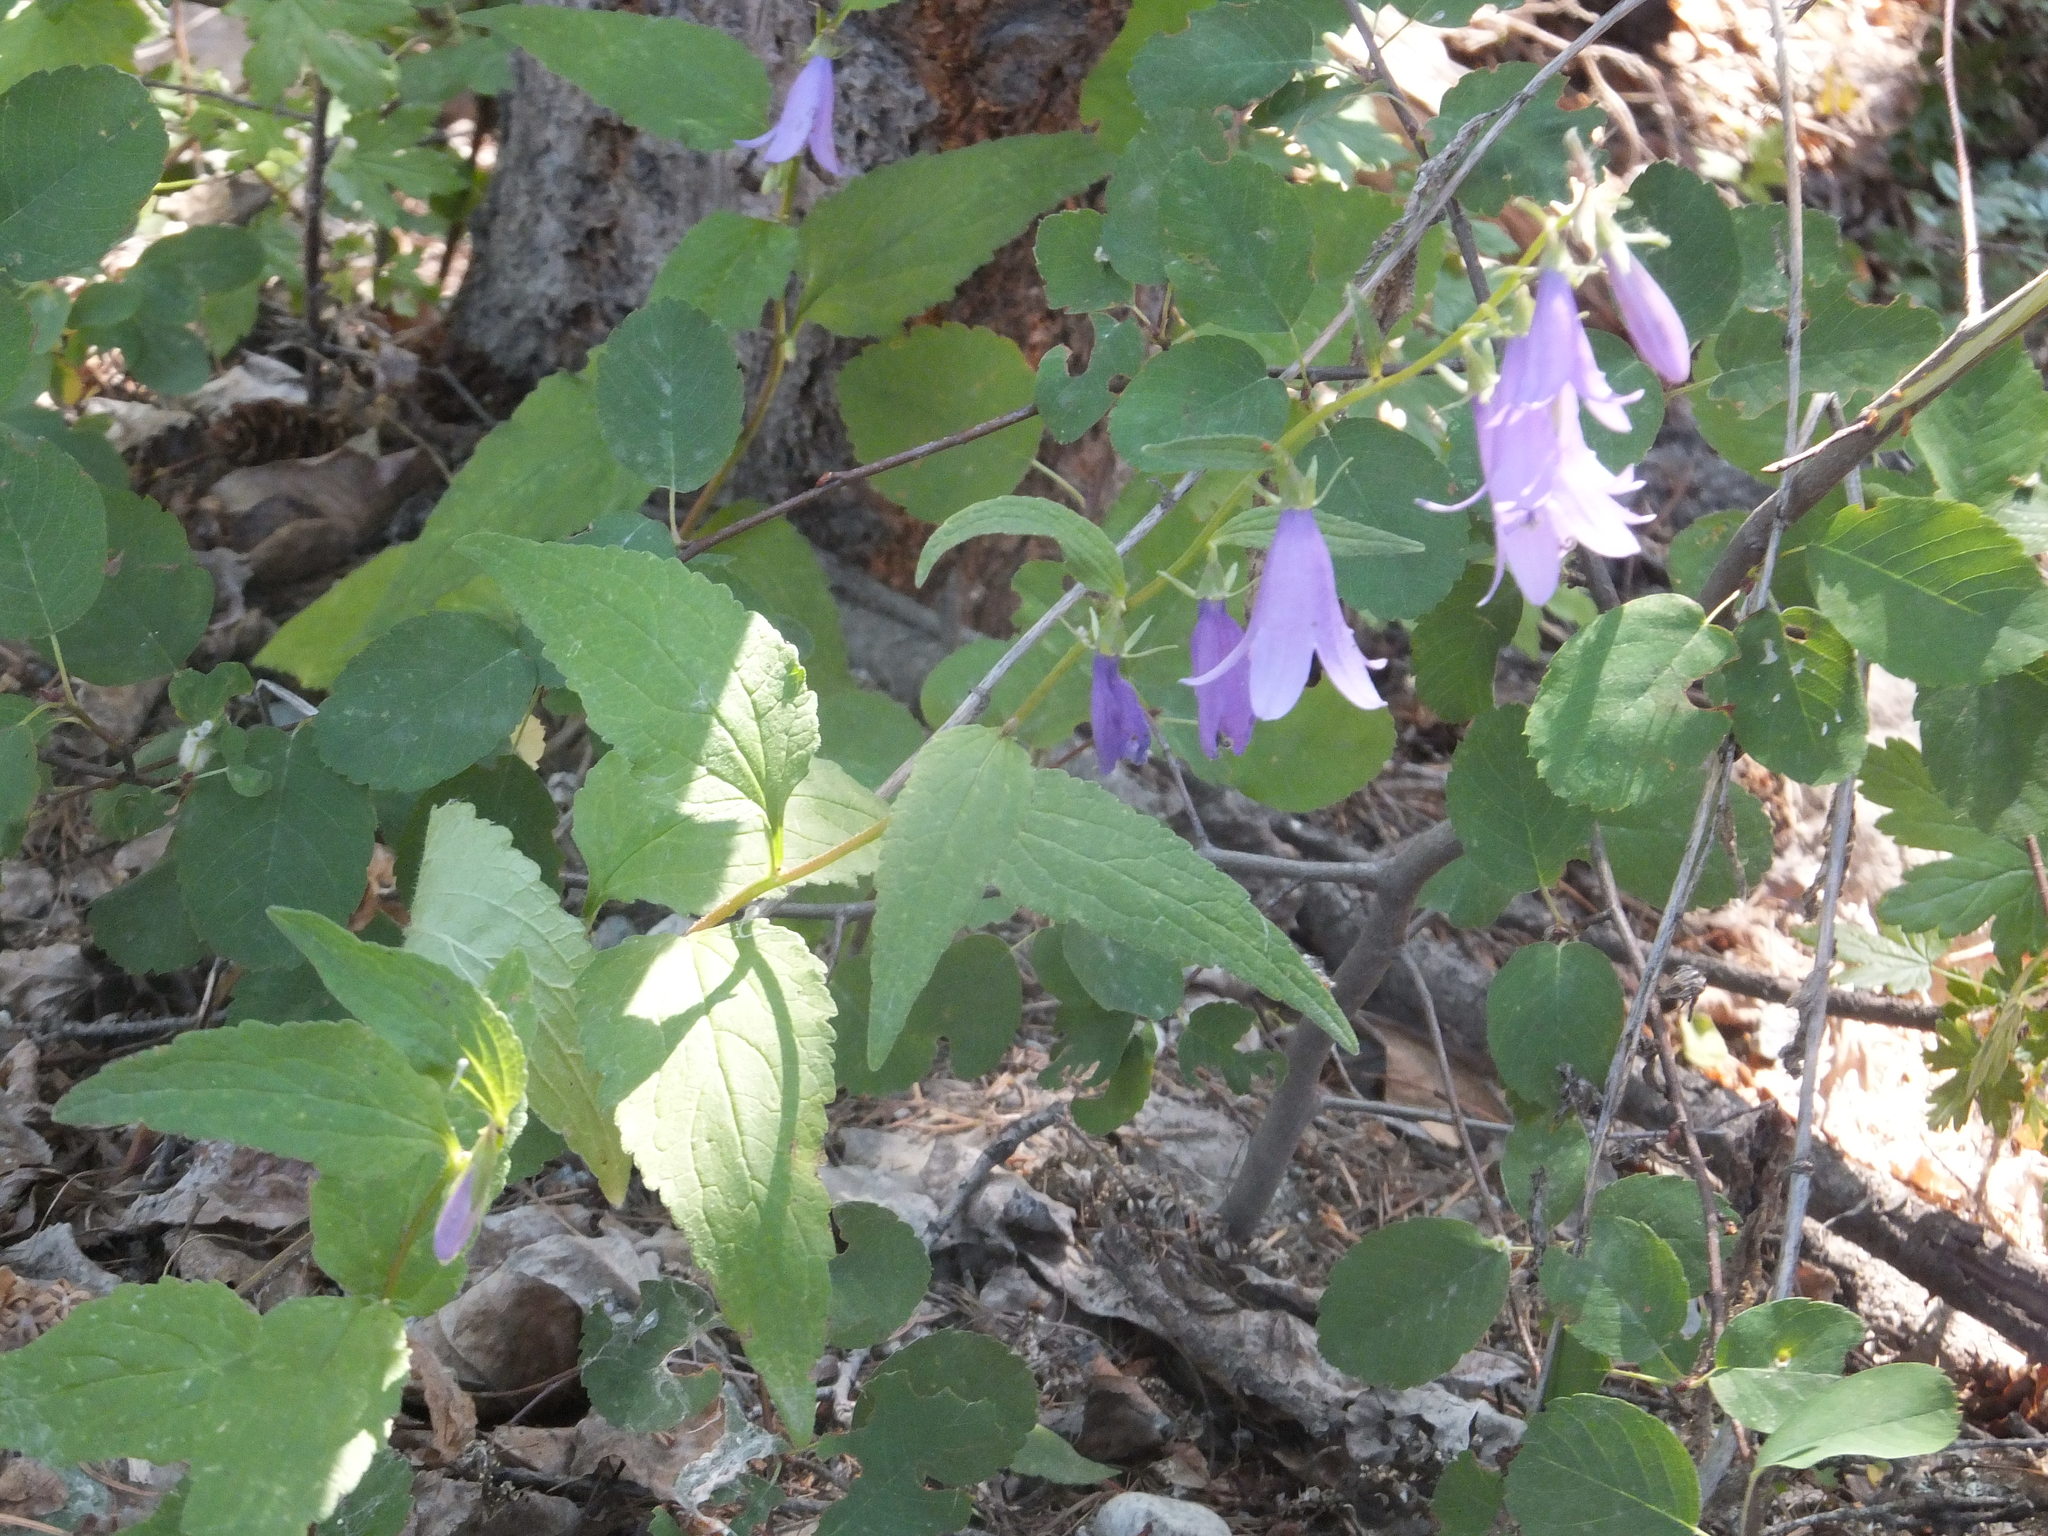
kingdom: Plantae
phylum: Tracheophyta
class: Magnoliopsida
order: Asterales
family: Campanulaceae
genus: Campanula
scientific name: Campanula rapunculoides
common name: Creeping bellflower
